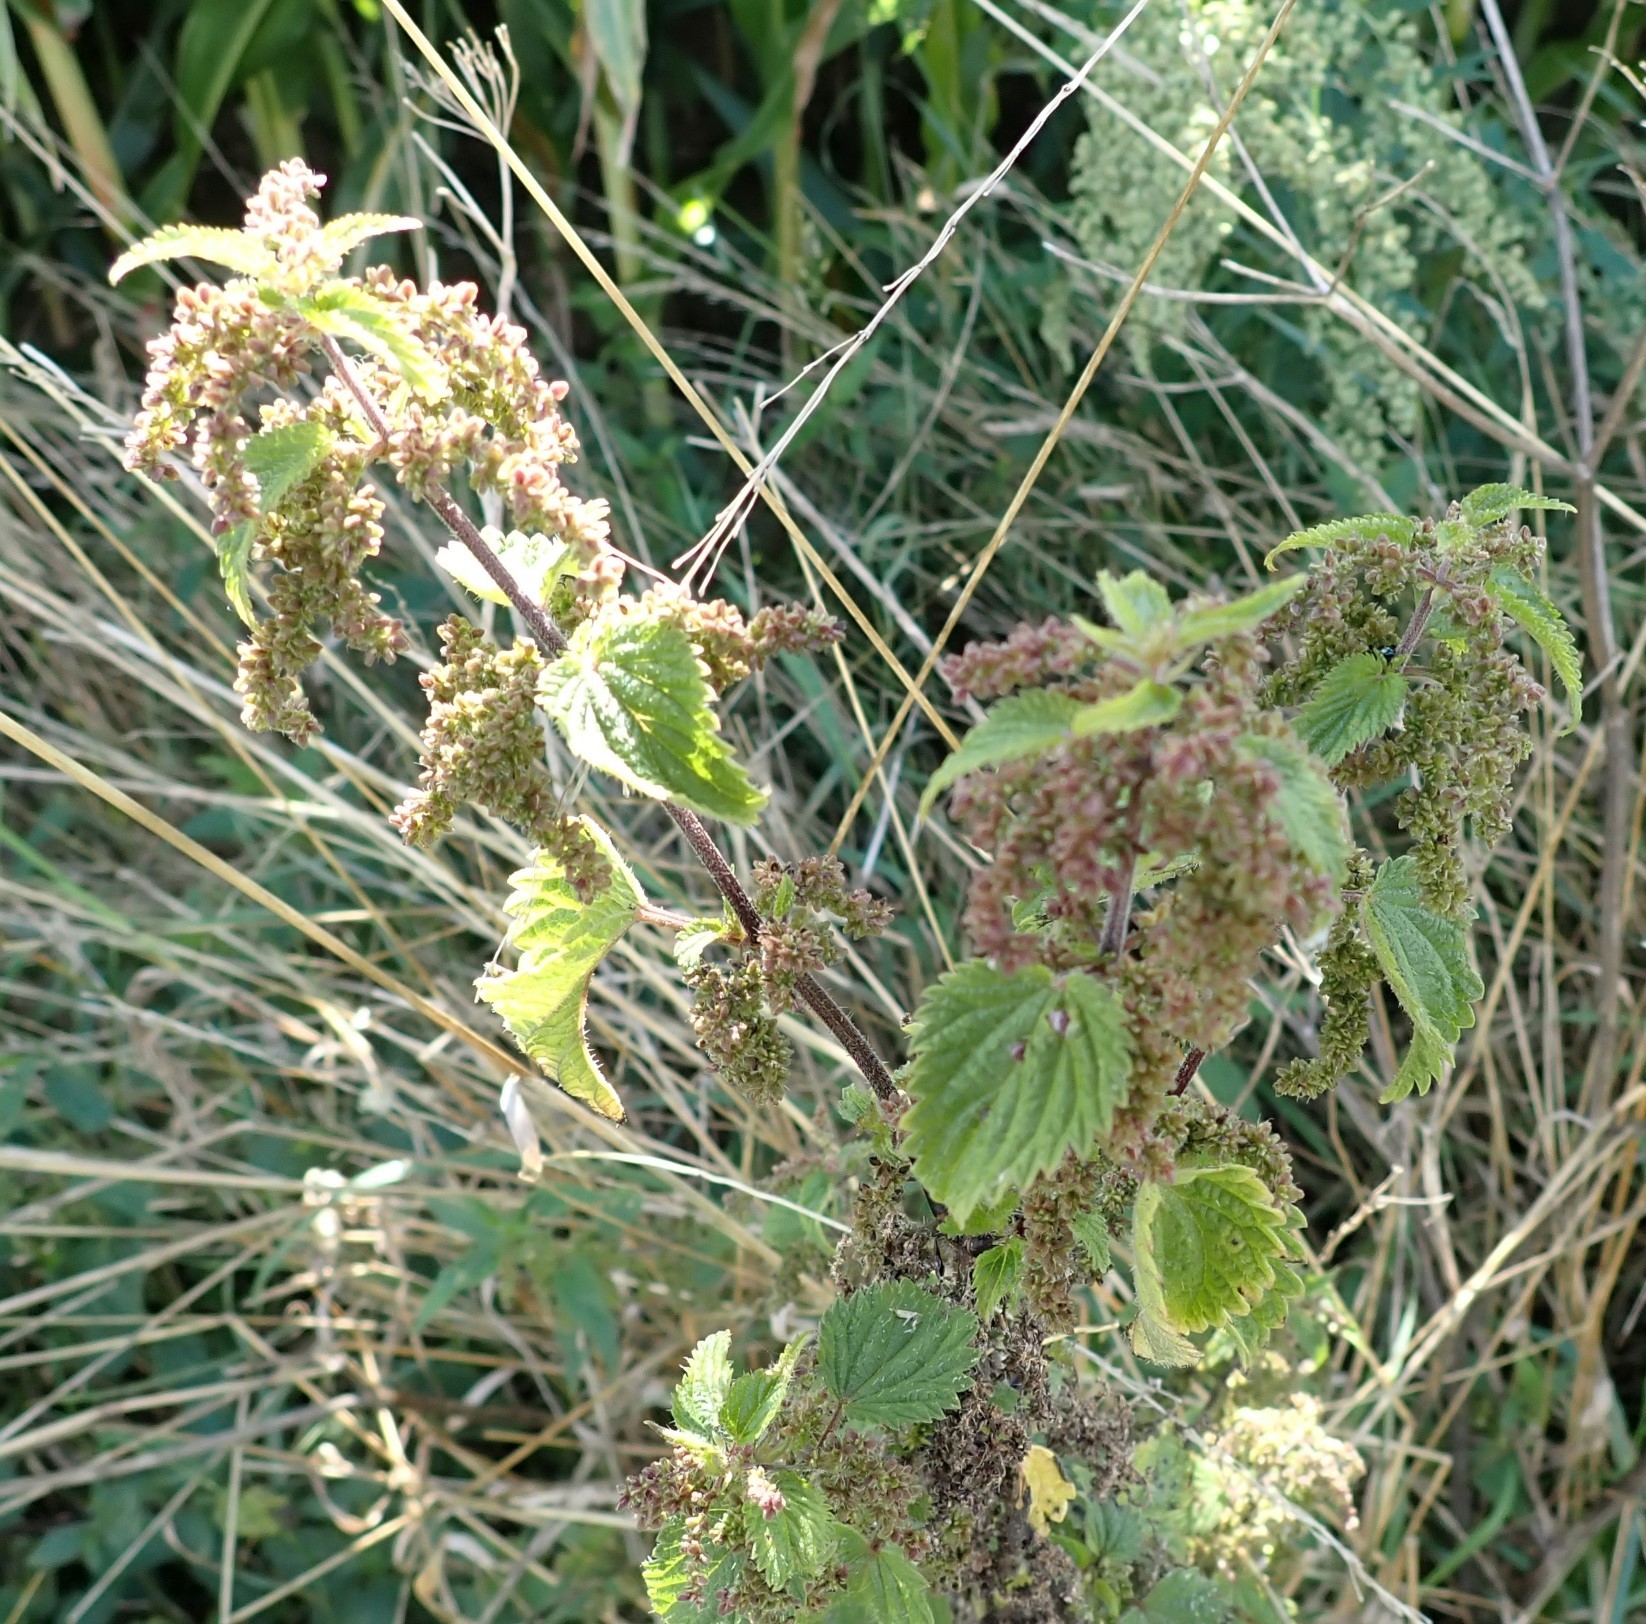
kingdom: Plantae
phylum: Tracheophyta
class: Magnoliopsida
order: Rosales
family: Urticaceae
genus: Urtica
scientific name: Urtica dioica
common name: Common nettle
